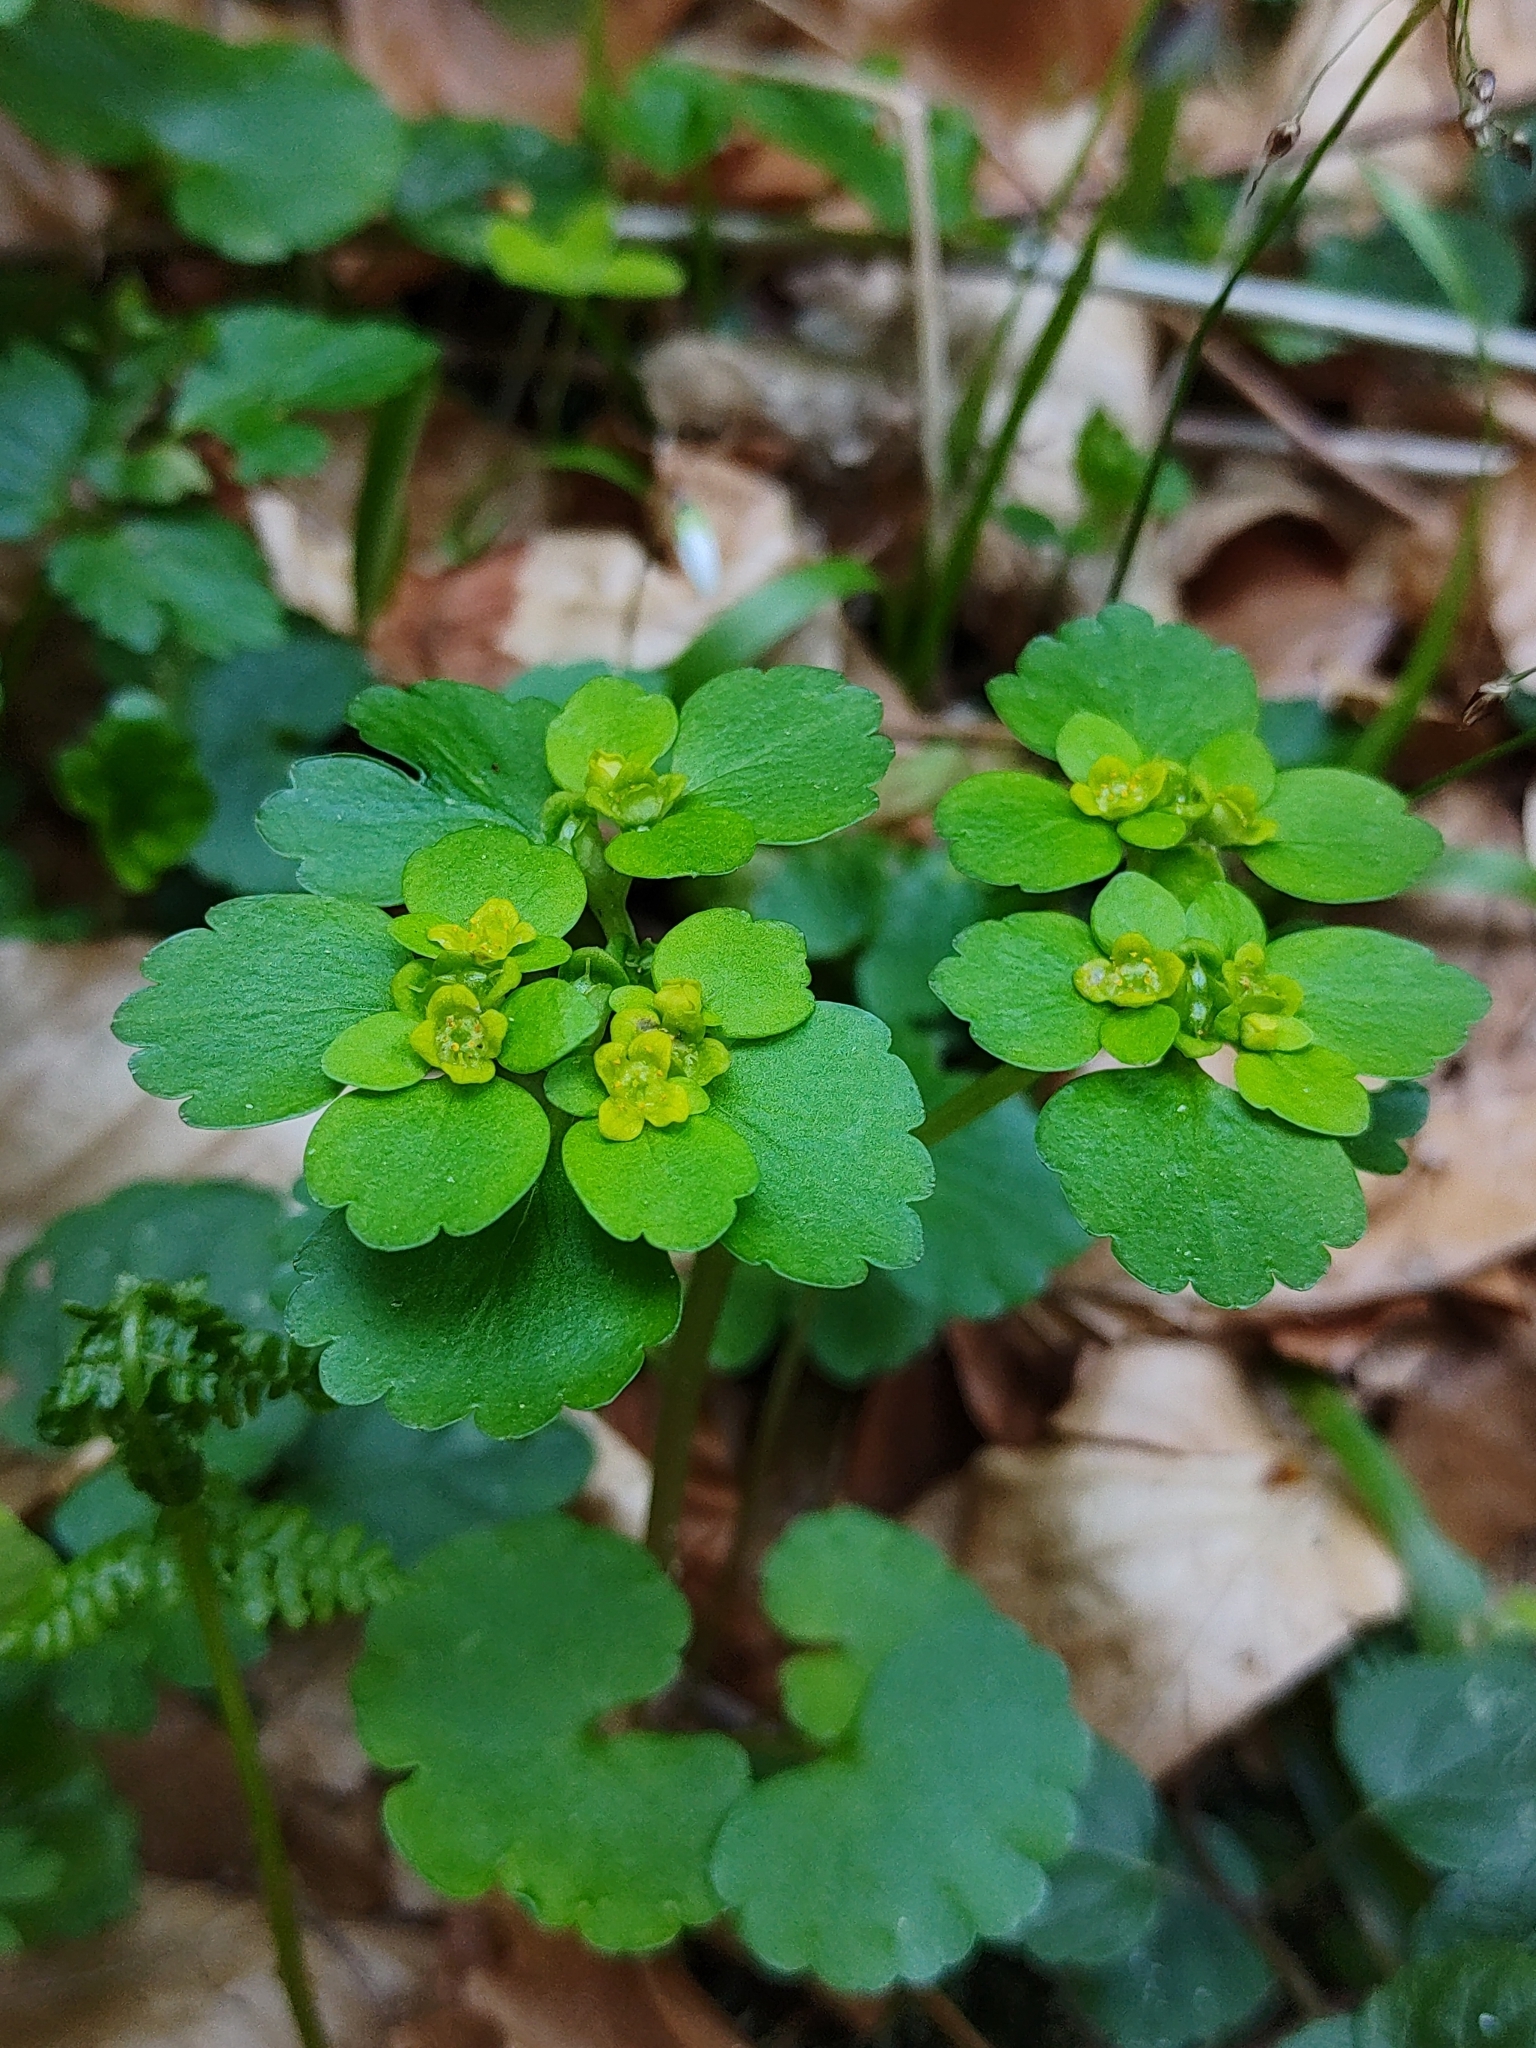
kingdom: Plantae
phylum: Tracheophyta
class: Magnoliopsida
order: Saxifragales
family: Saxifragaceae
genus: Chrysosplenium
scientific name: Chrysosplenium alternifolium
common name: Alternate-leaved golden-saxifrage
